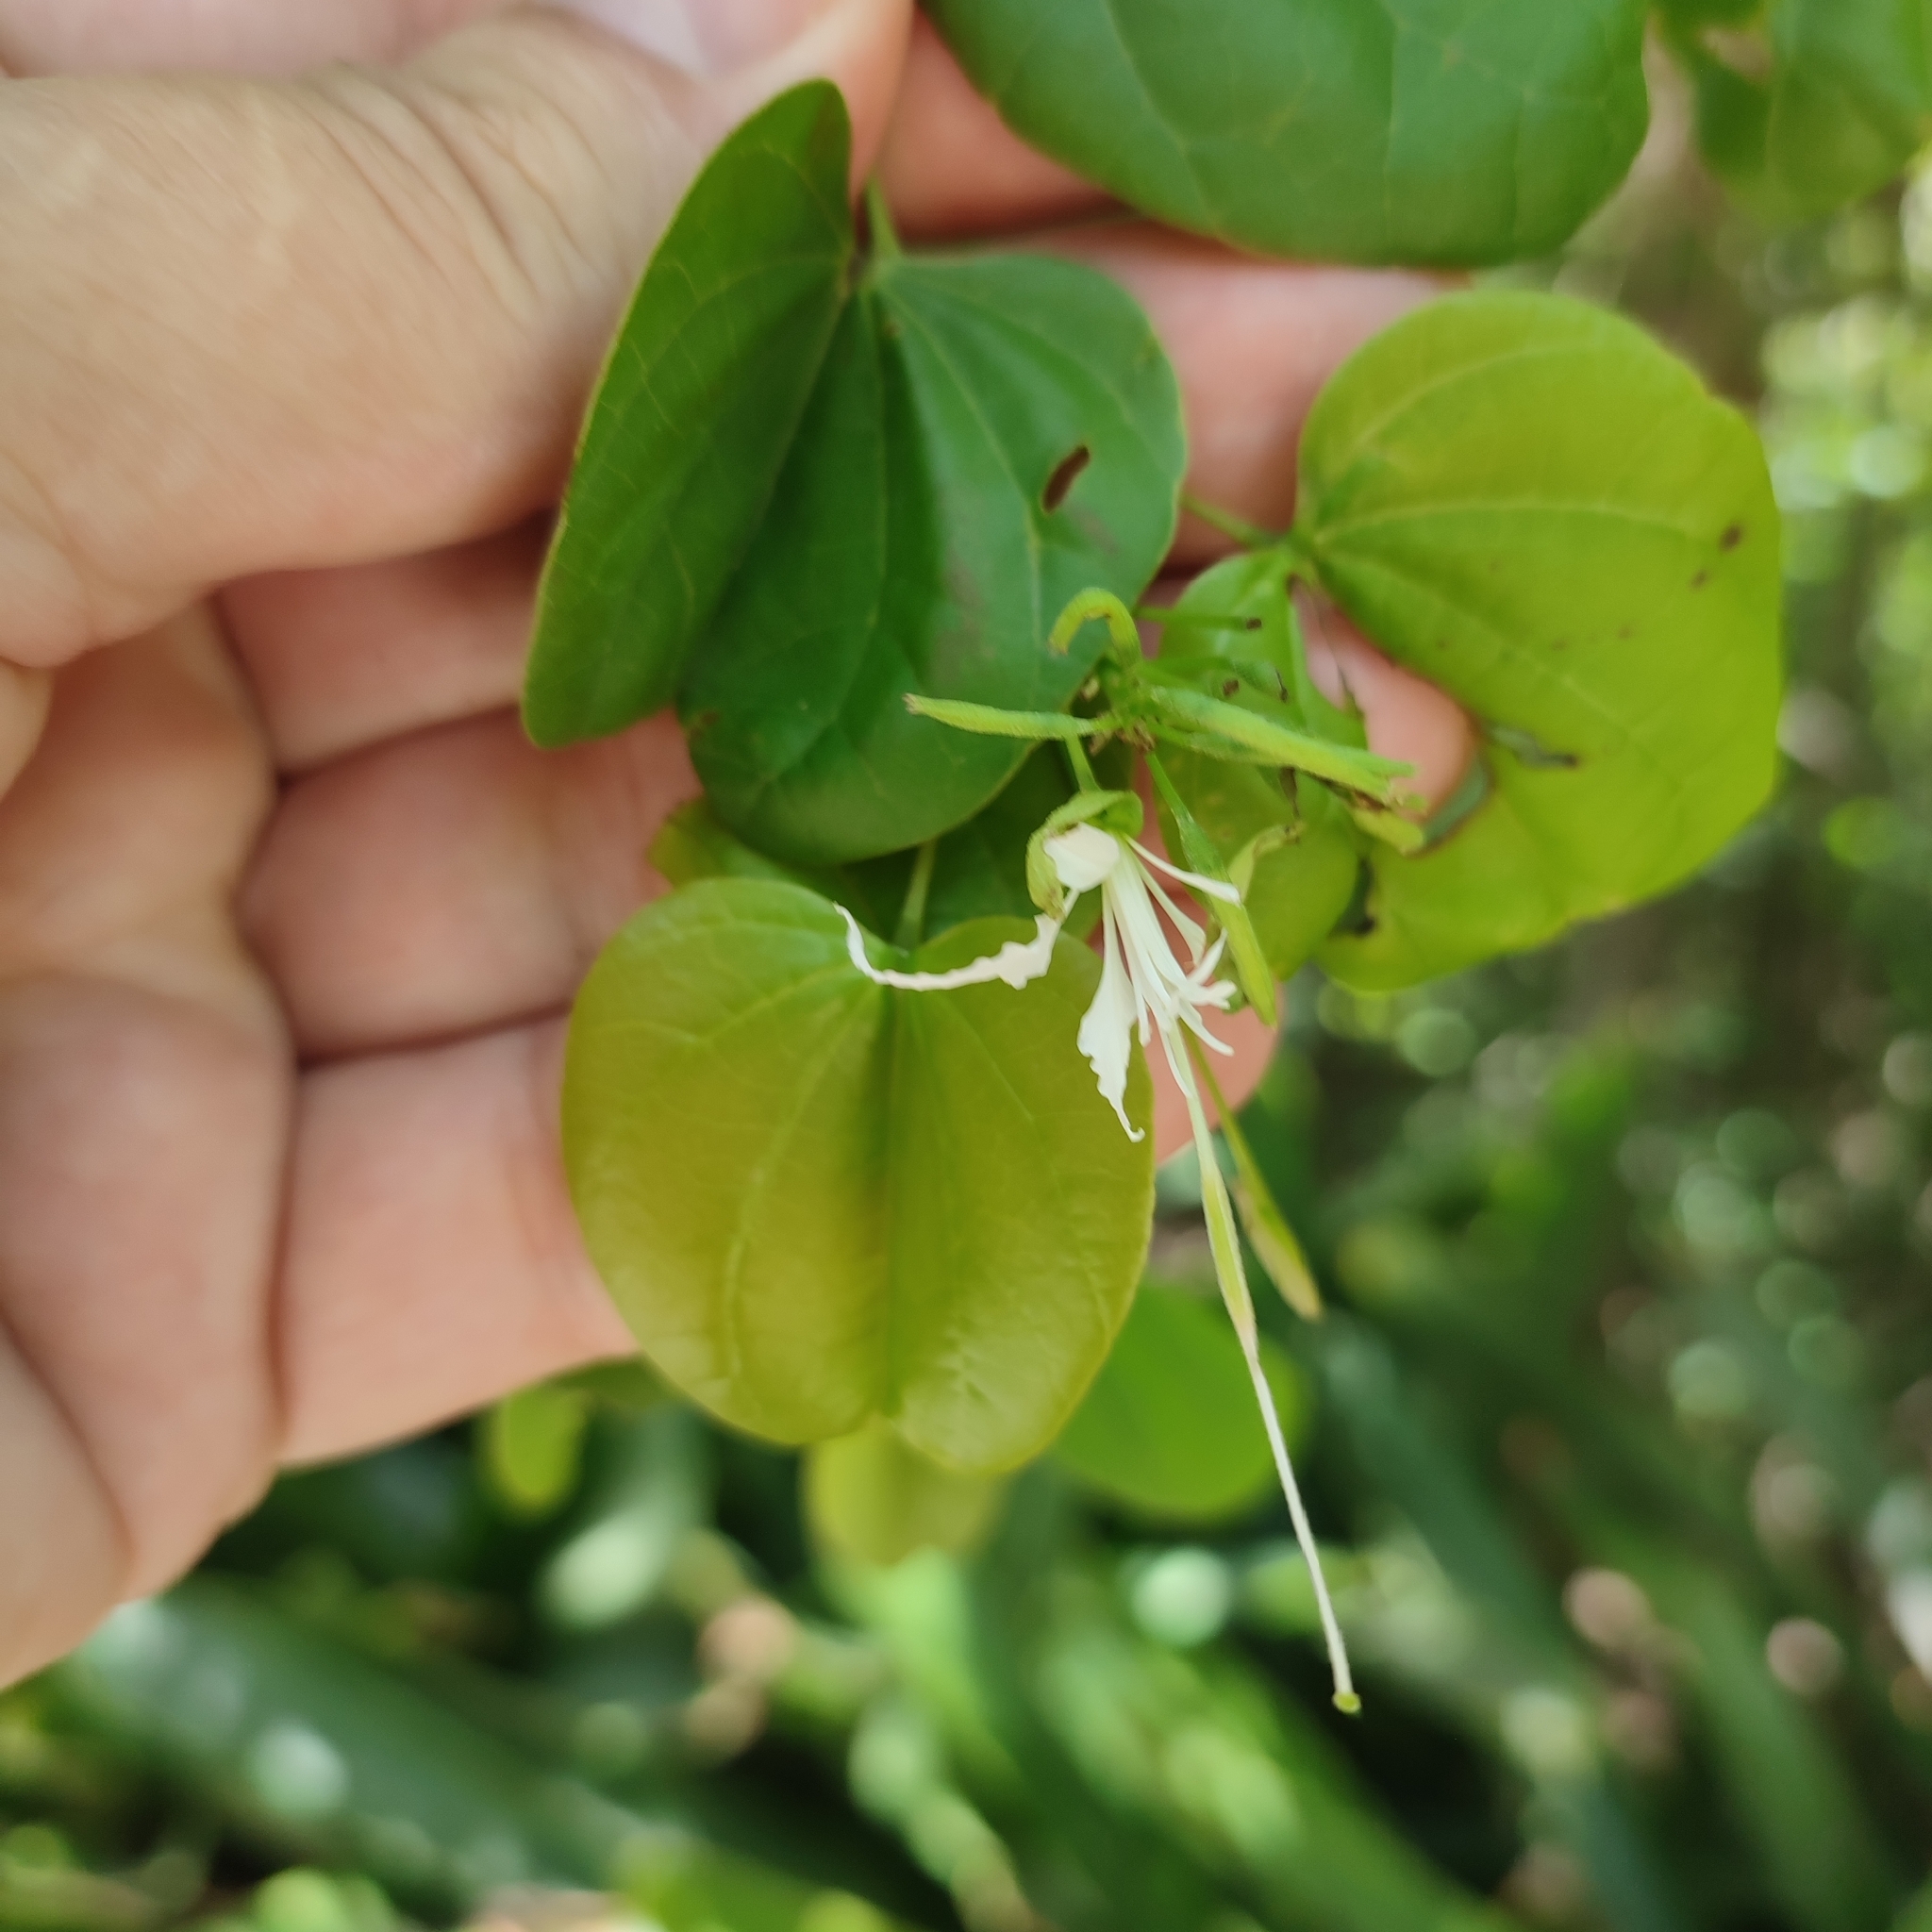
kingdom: Plantae
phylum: Tracheophyta
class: Magnoliopsida
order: Fabales
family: Fabaceae
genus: Bauhinia
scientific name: Bauhinia divaricata
